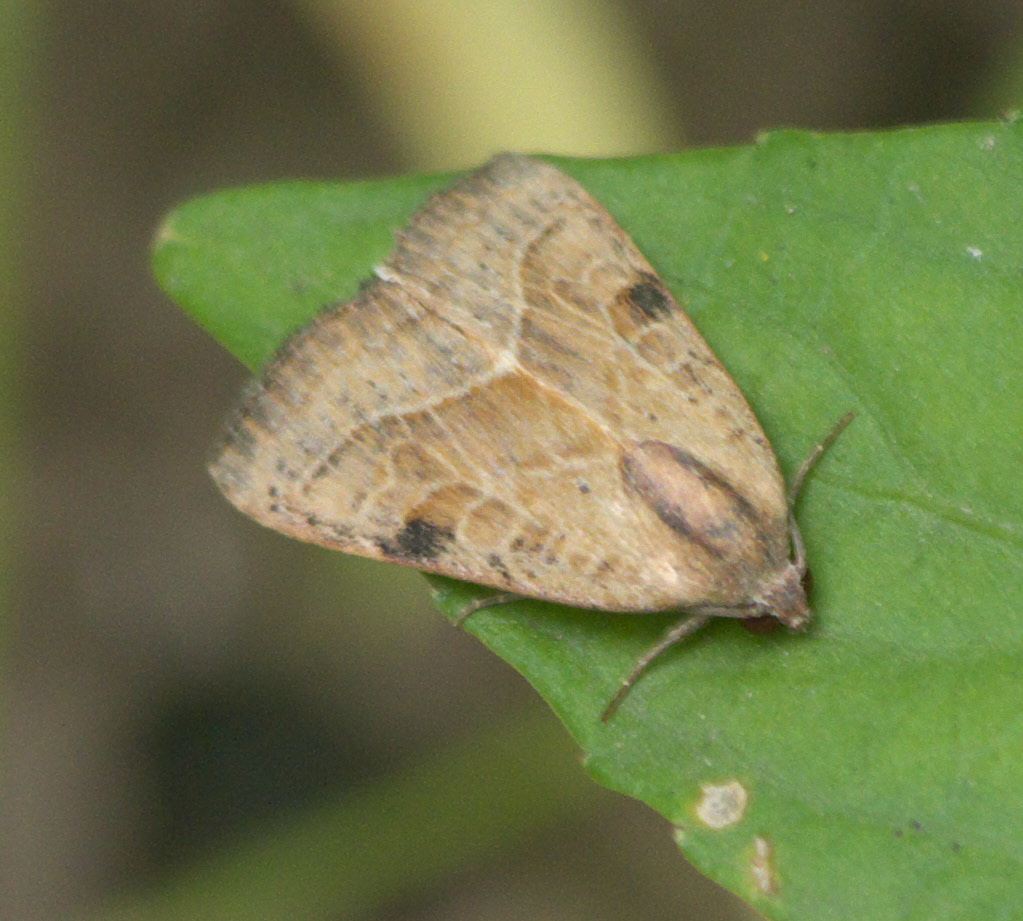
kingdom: Animalia
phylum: Arthropoda
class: Insecta
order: Lepidoptera
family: Noctuidae
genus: Galgula
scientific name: Galgula partita
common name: Wedgeling
